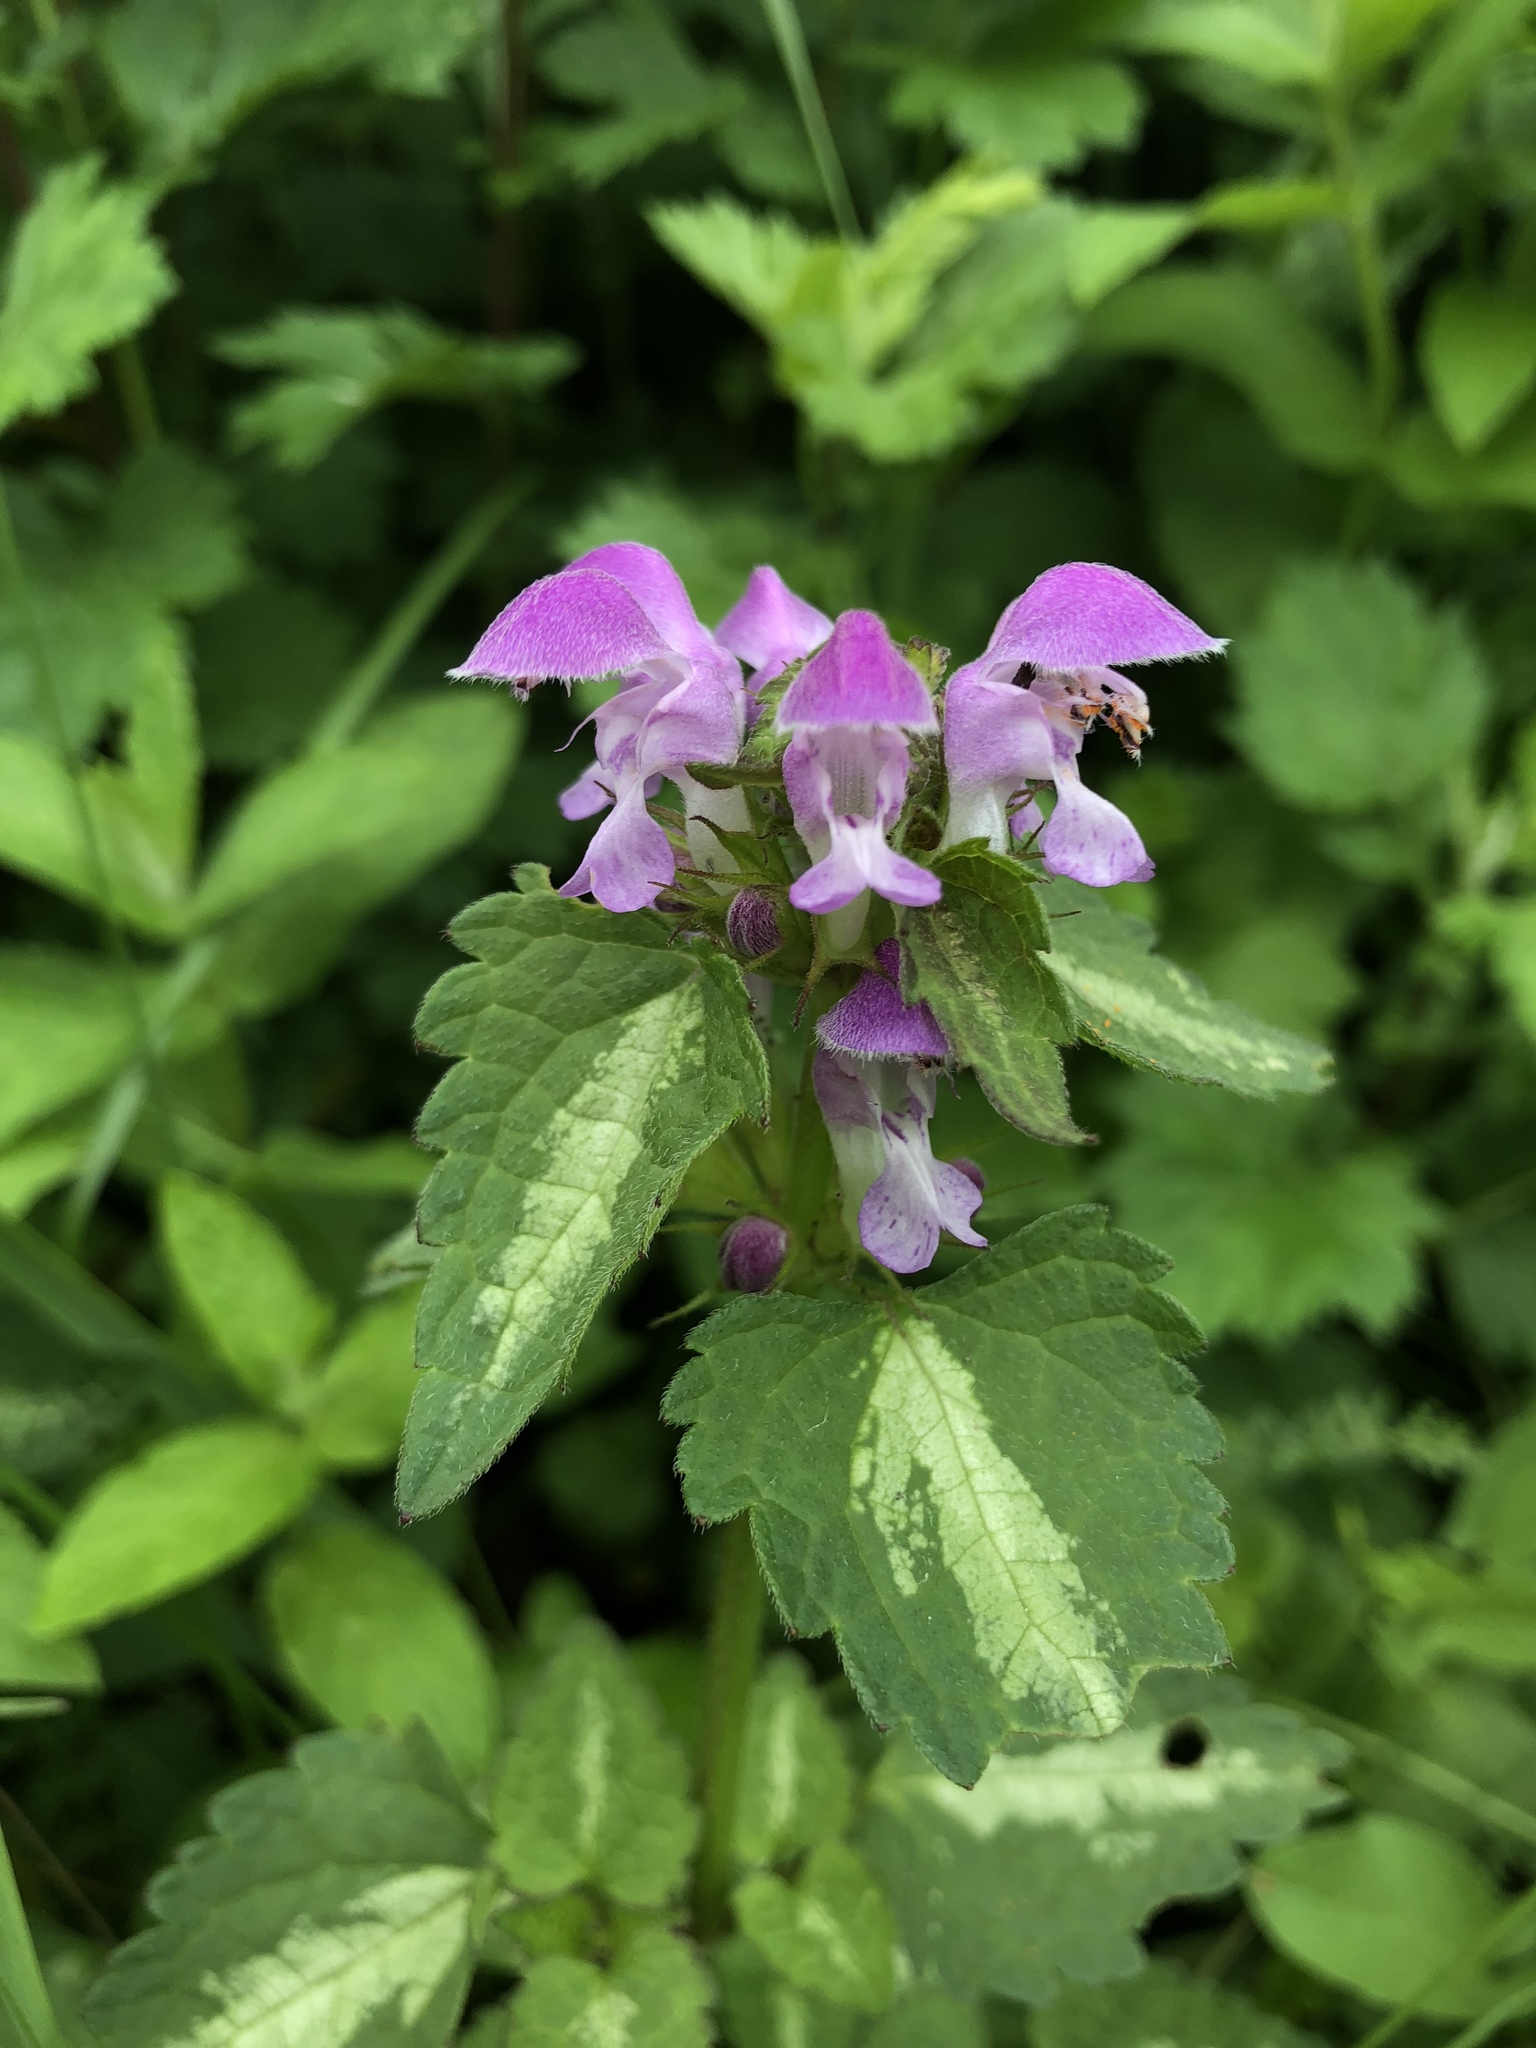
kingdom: Plantae
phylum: Tracheophyta
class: Magnoliopsida
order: Lamiales
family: Lamiaceae
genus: Lamium
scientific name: Lamium maculatum
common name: Spotted dead-nettle
